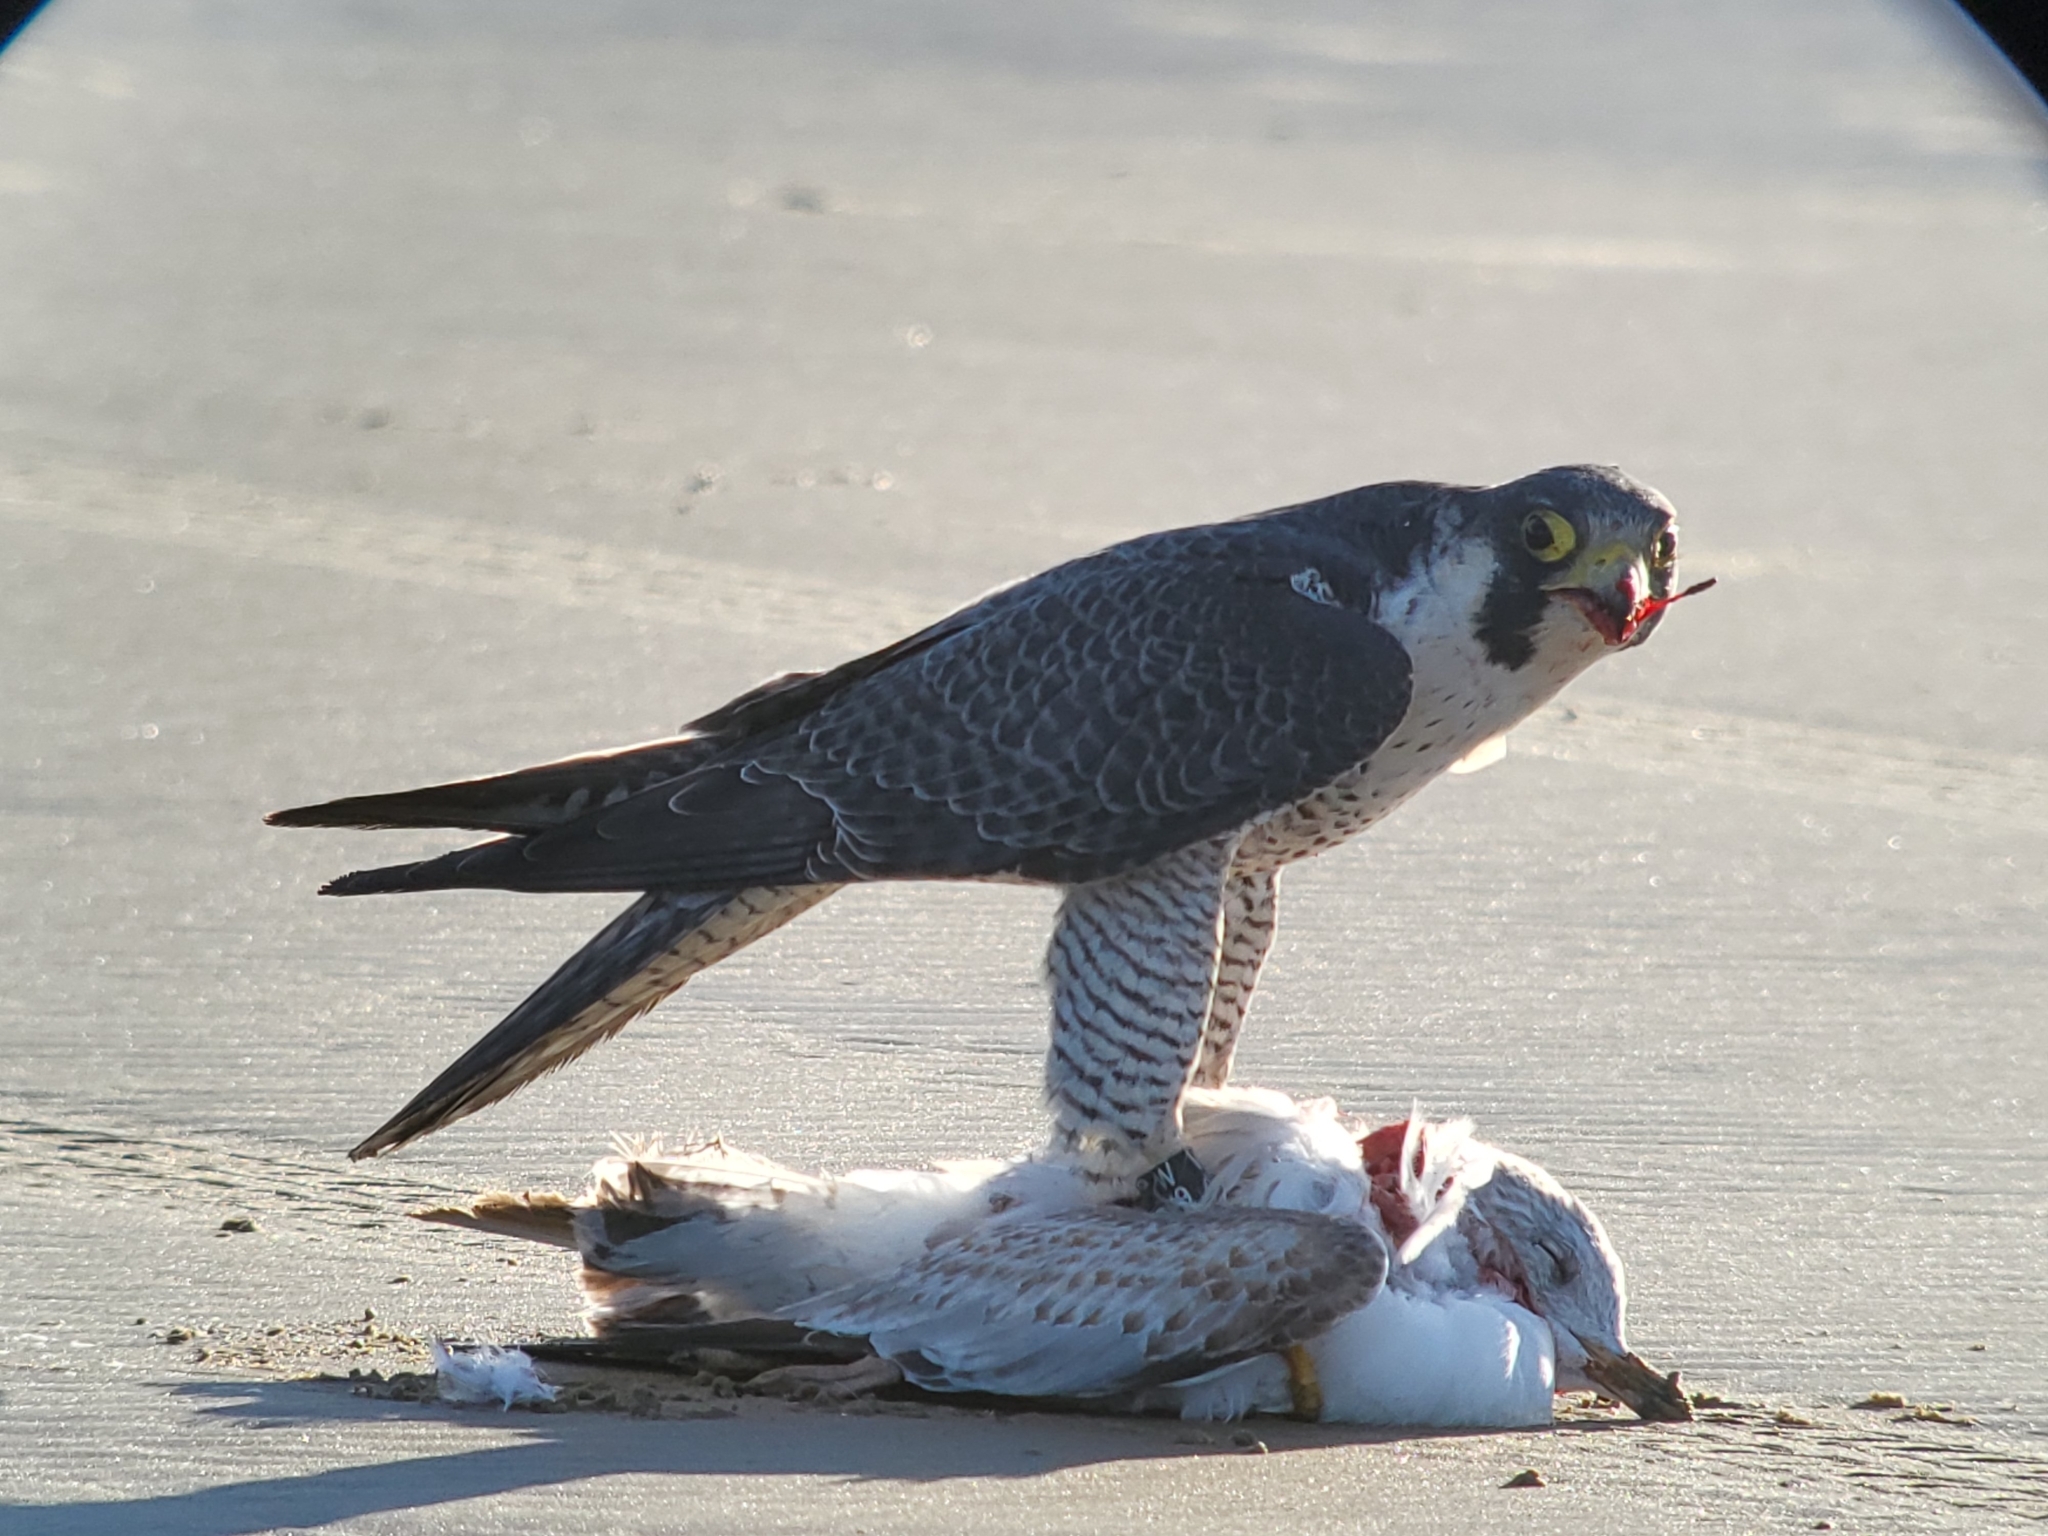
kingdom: Animalia
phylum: Chordata
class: Aves
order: Charadriiformes
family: Laridae
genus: Larus
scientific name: Larus delawarensis
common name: Ring-billed gull
